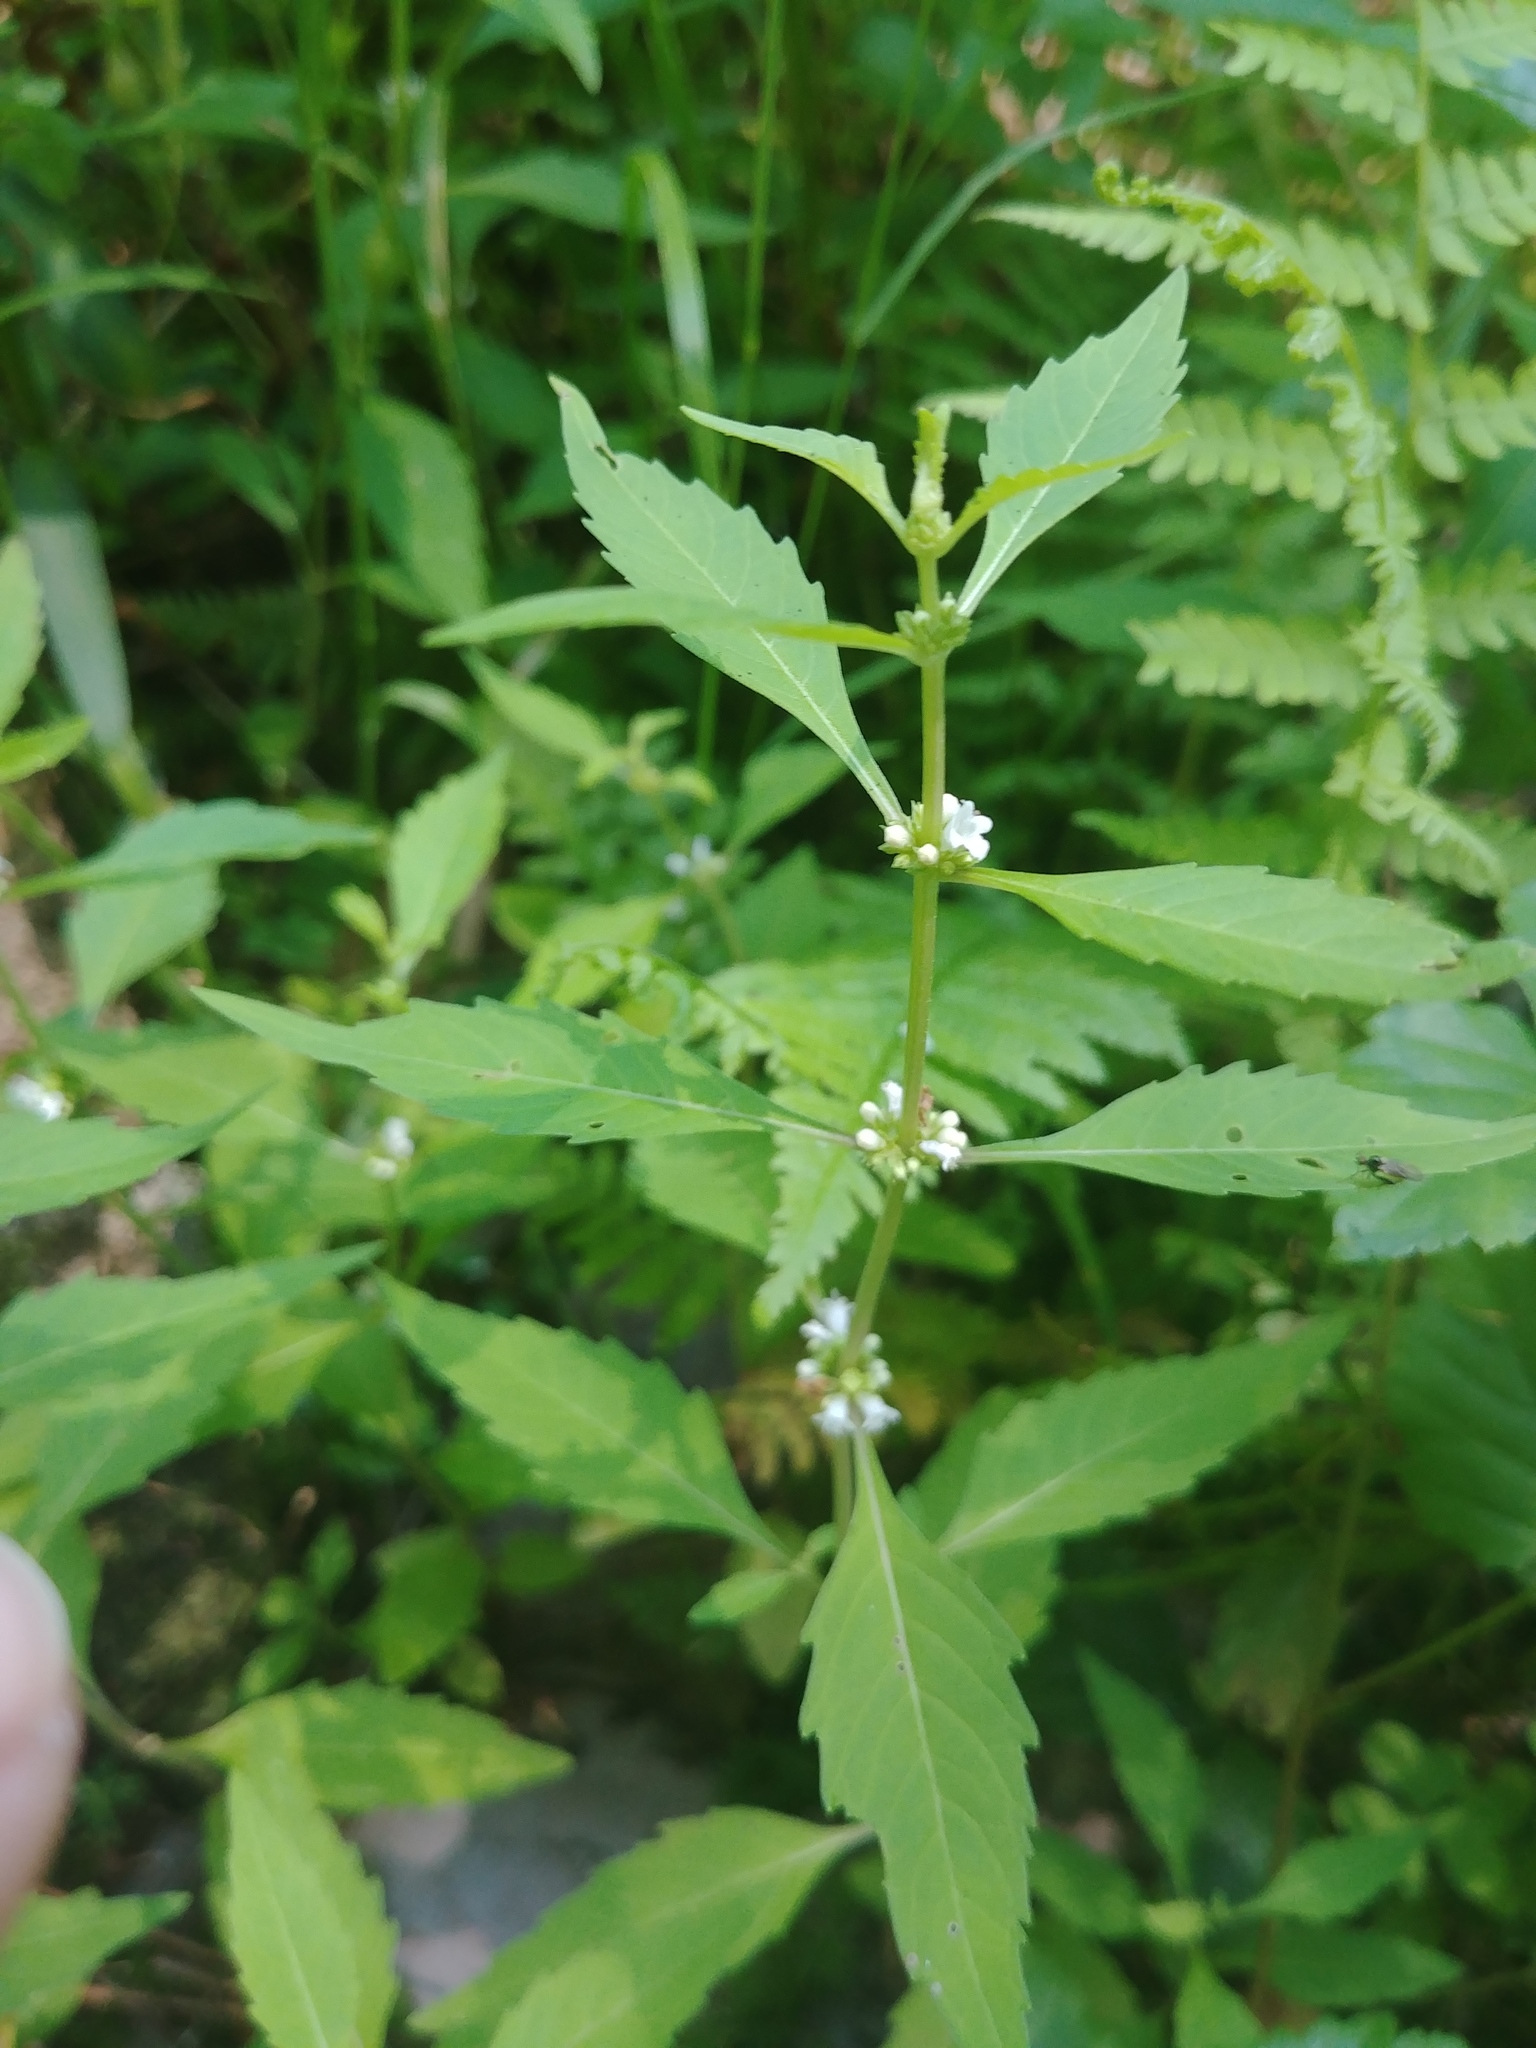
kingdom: Plantae
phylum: Tracheophyta
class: Magnoliopsida
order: Lamiales
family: Lamiaceae
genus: Lycopus
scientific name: Lycopus uniflorus
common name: Northern bugleweed
